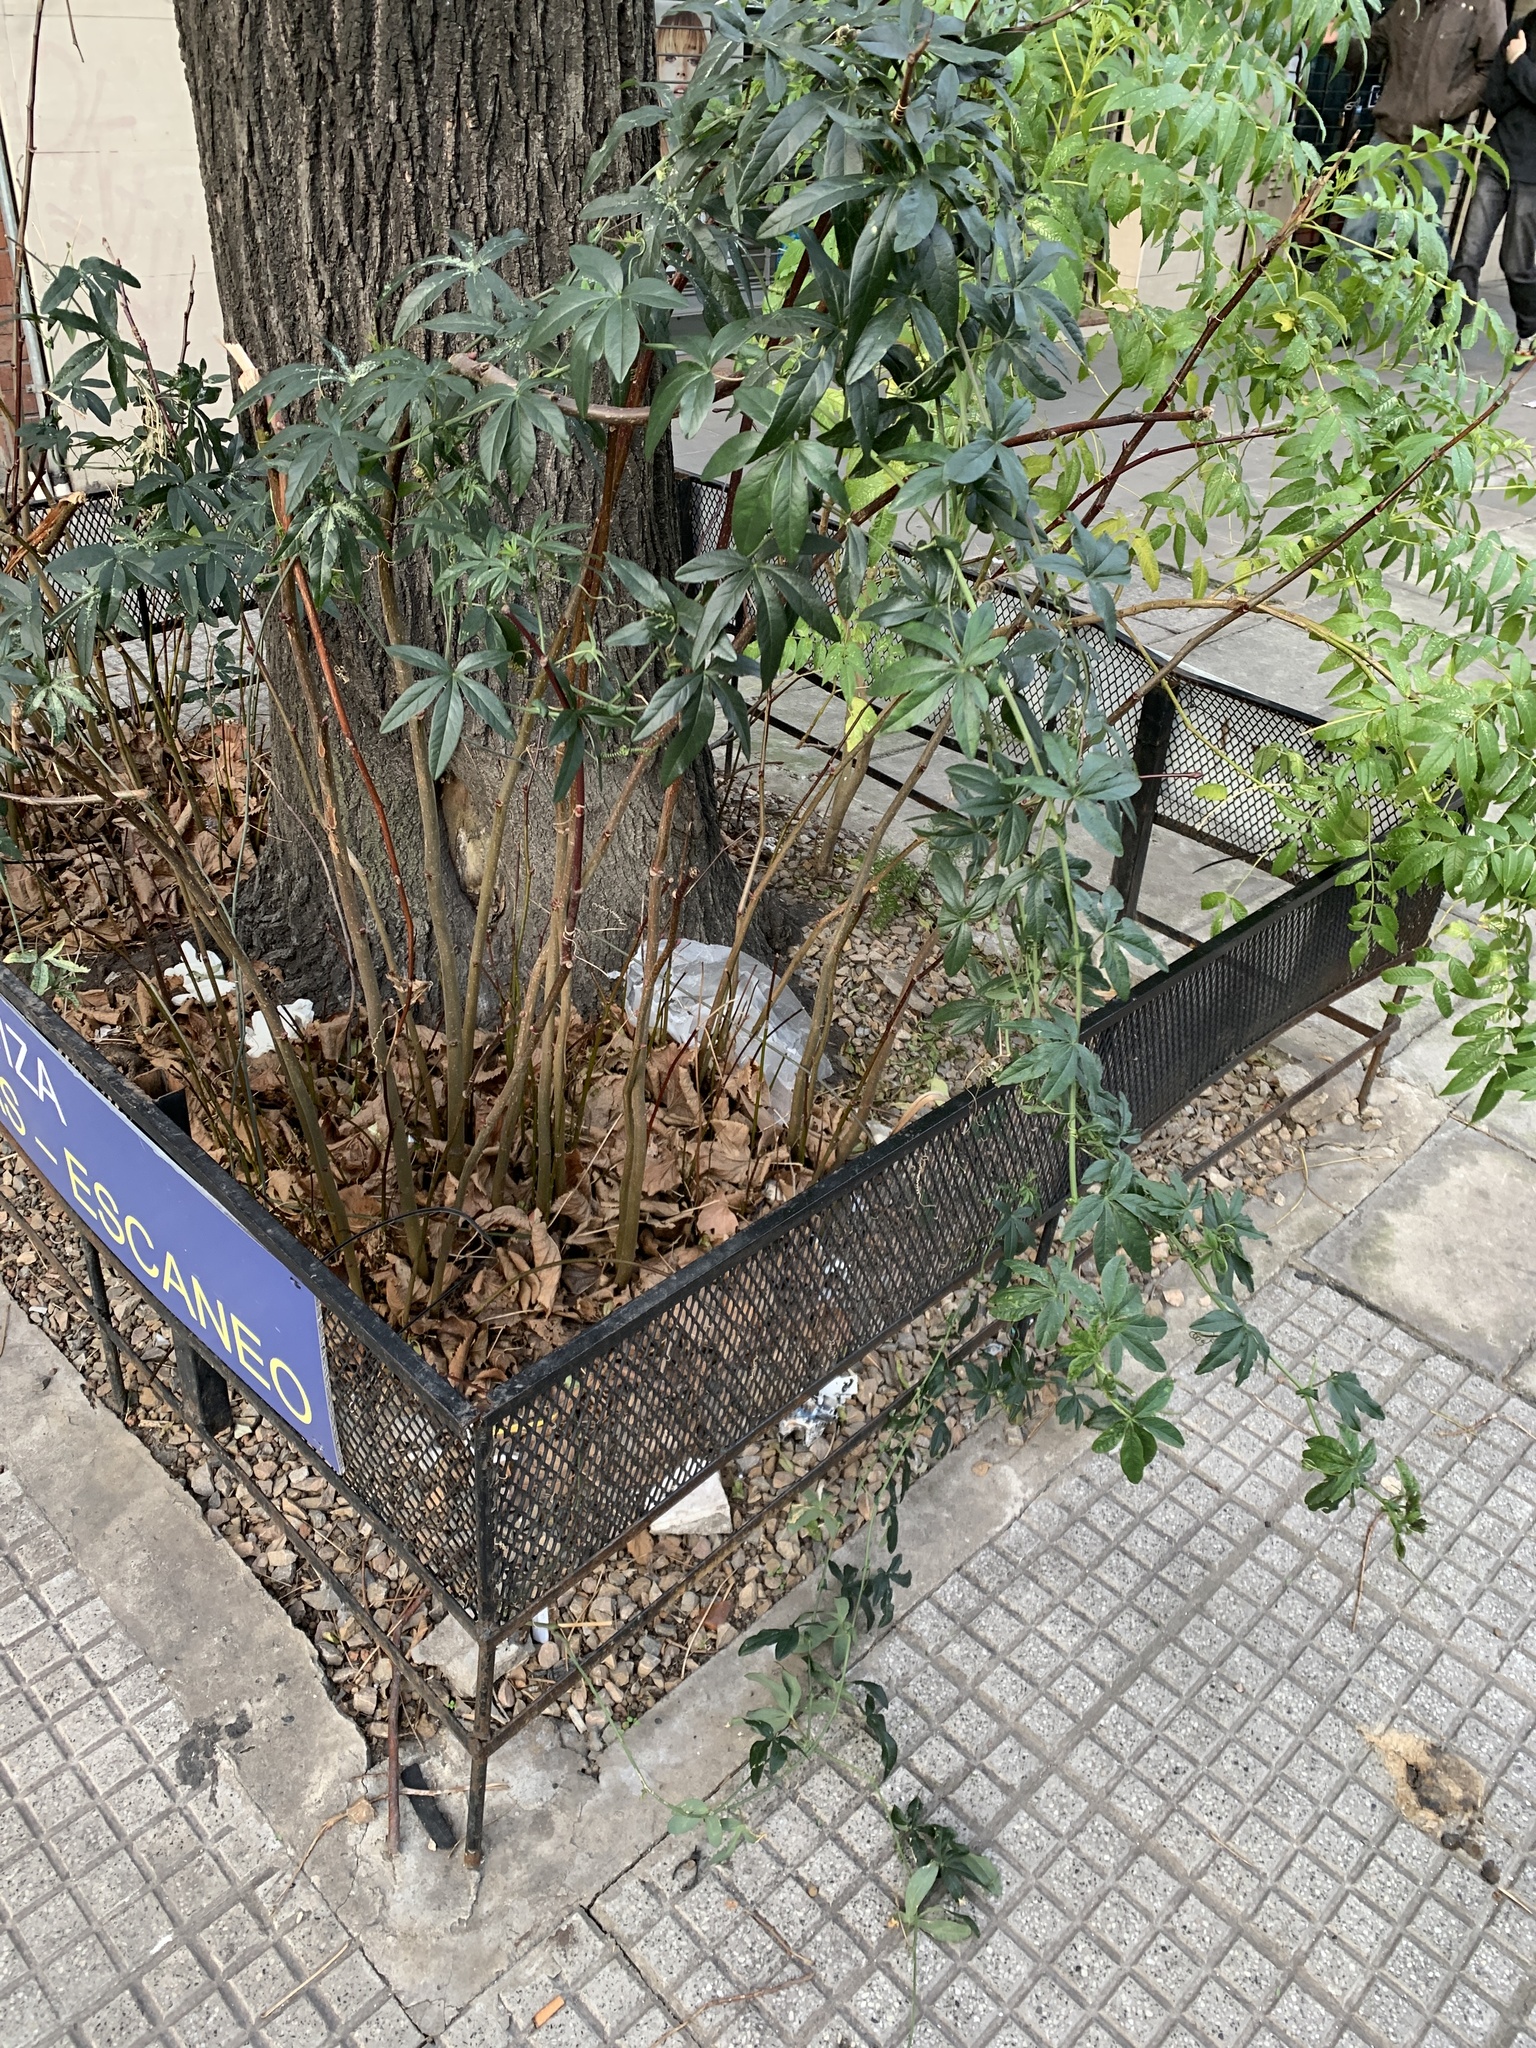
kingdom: Plantae
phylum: Tracheophyta
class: Magnoliopsida
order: Malpighiales
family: Passifloraceae
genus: Passiflora
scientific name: Passiflora caerulea
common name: Blue passionflower
